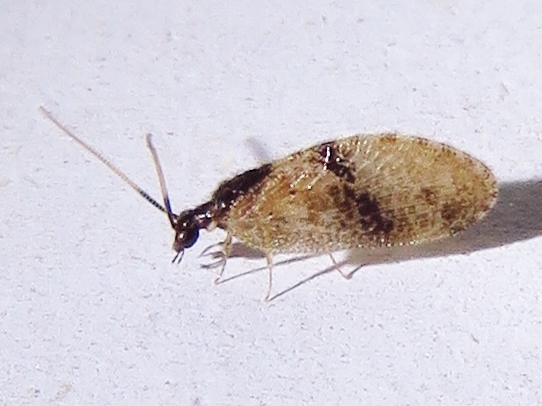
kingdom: Animalia
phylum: Arthropoda
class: Insecta
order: Neuroptera
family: Hemerobiidae
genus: Sympherobius
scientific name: Sympherobius barberi
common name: Brown lacewing
